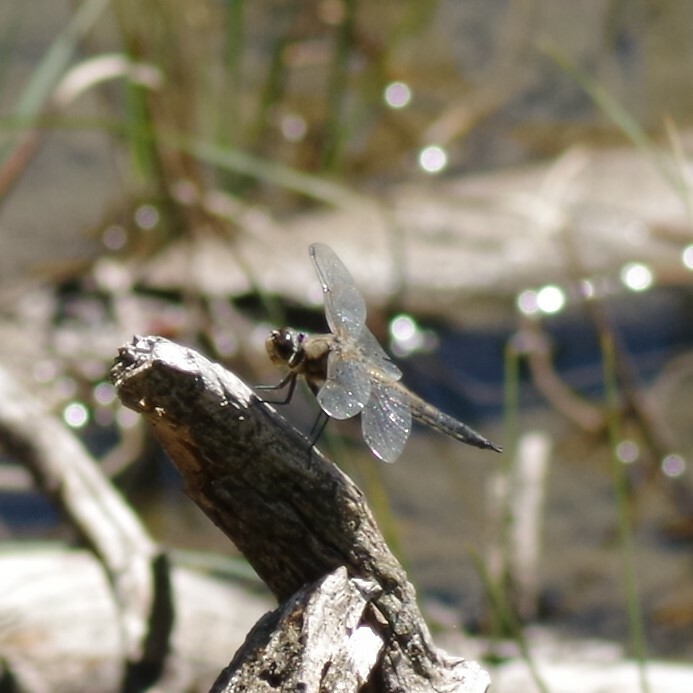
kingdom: Animalia
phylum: Arthropoda
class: Insecta
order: Odonata
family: Libellulidae
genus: Libellula
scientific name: Libellula quadrimaculata
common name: Four-spotted chaser
